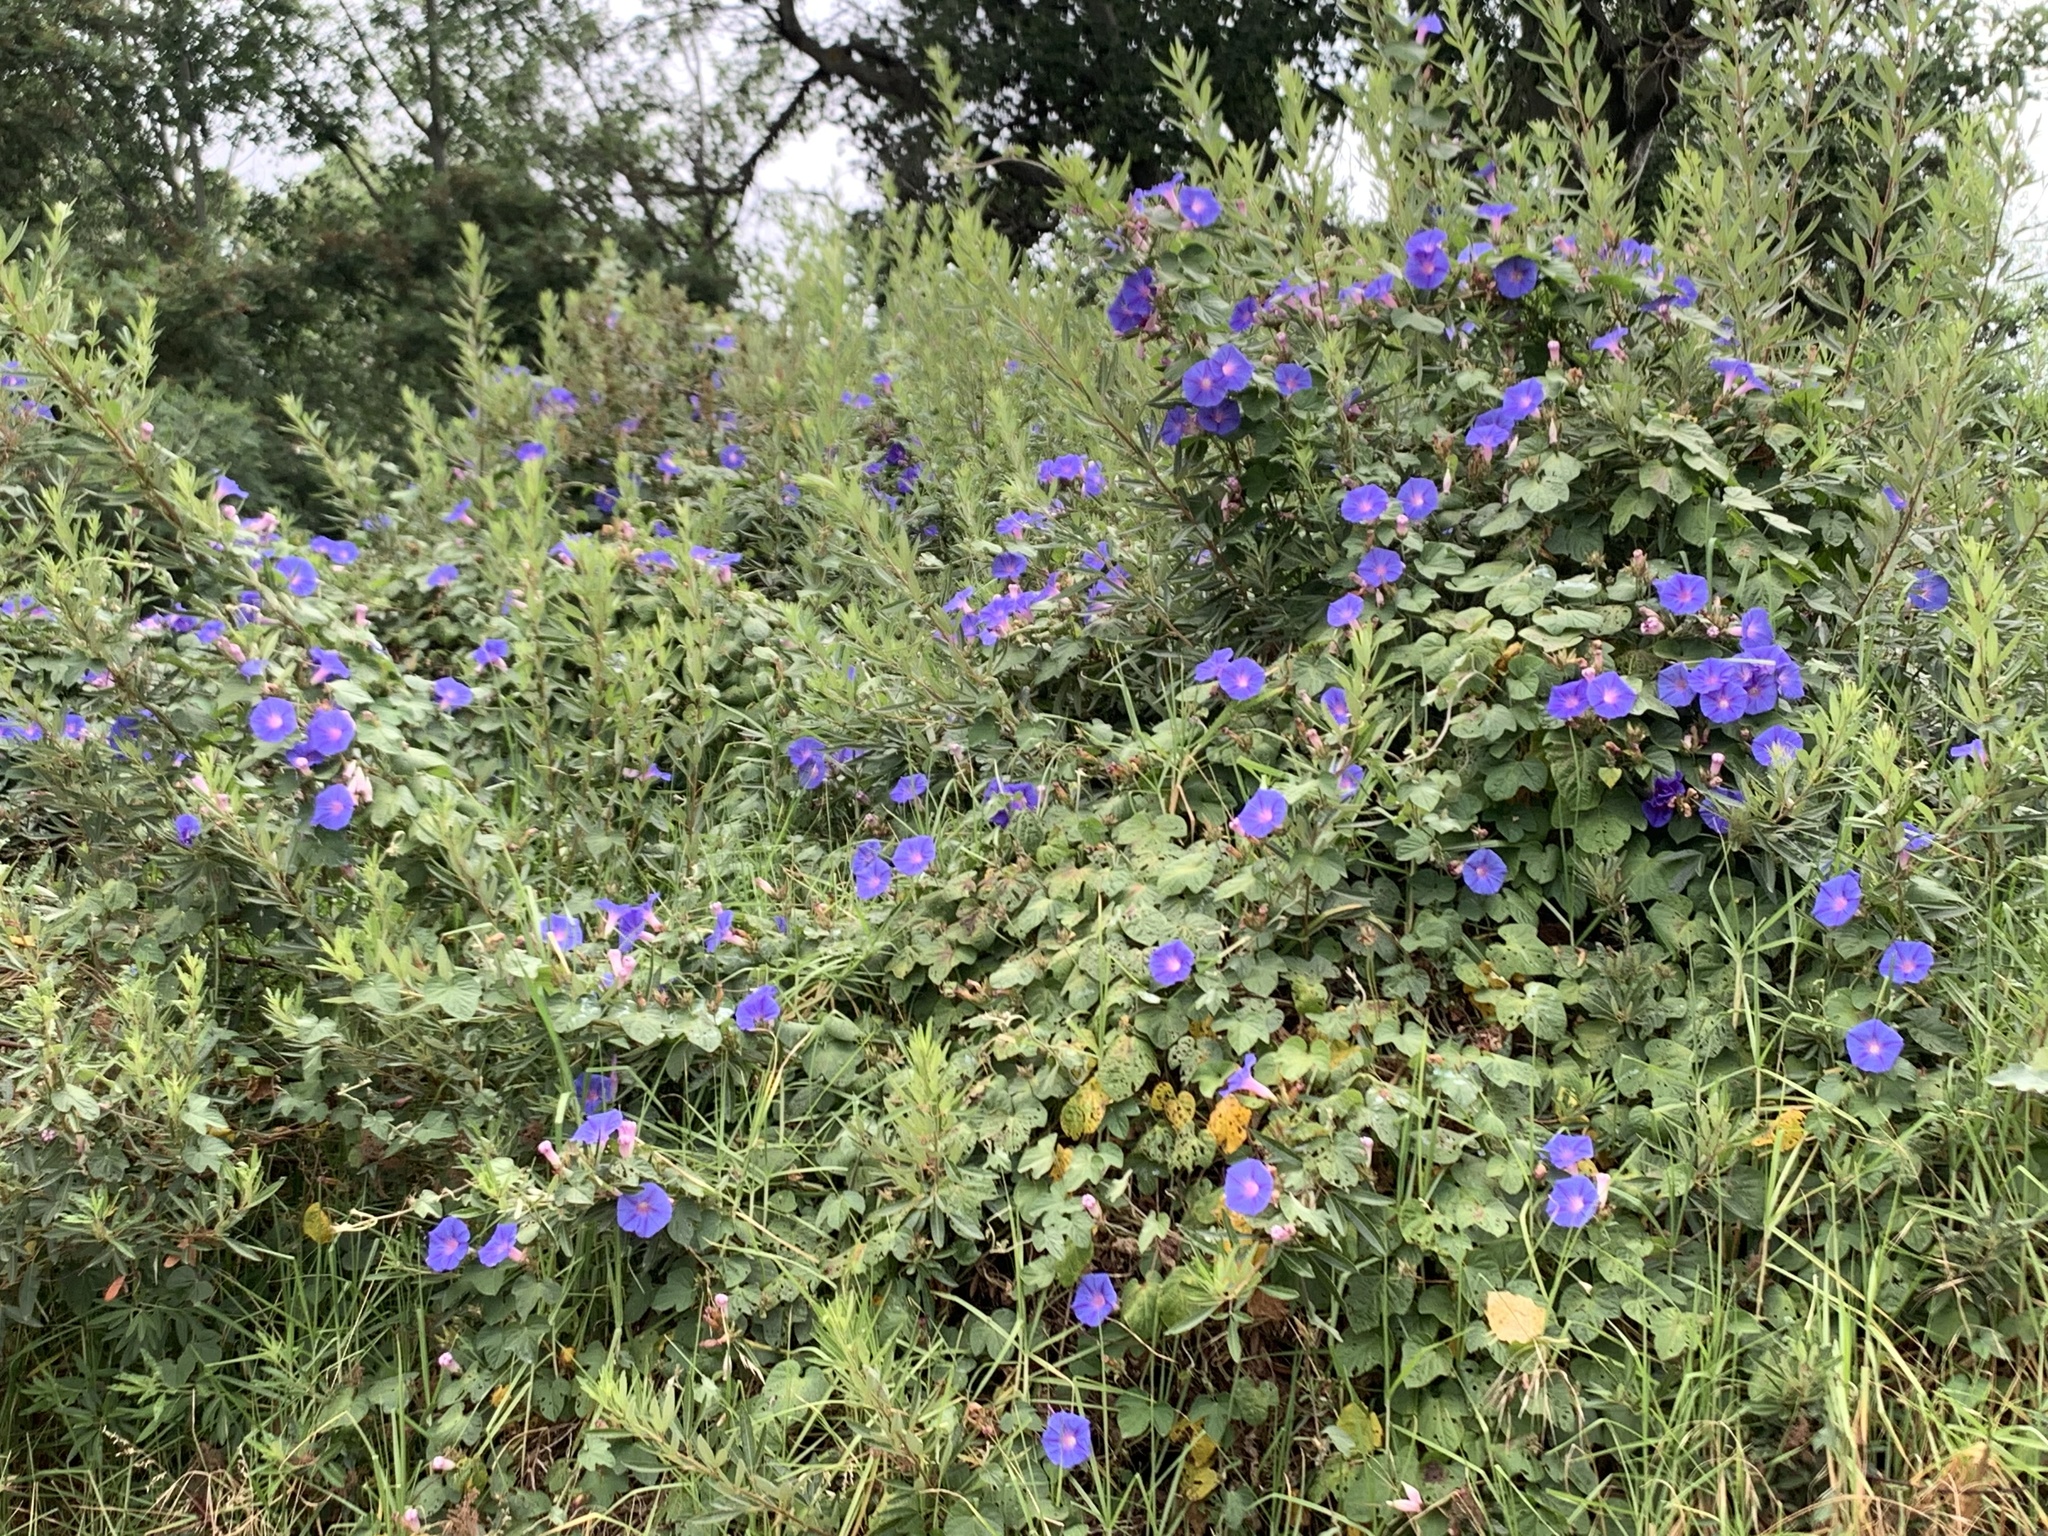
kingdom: Plantae
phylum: Tracheophyta
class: Magnoliopsida
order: Solanales
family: Convolvulaceae
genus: Ipomoea
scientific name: Ipomoea indica
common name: Blue dawnflower
